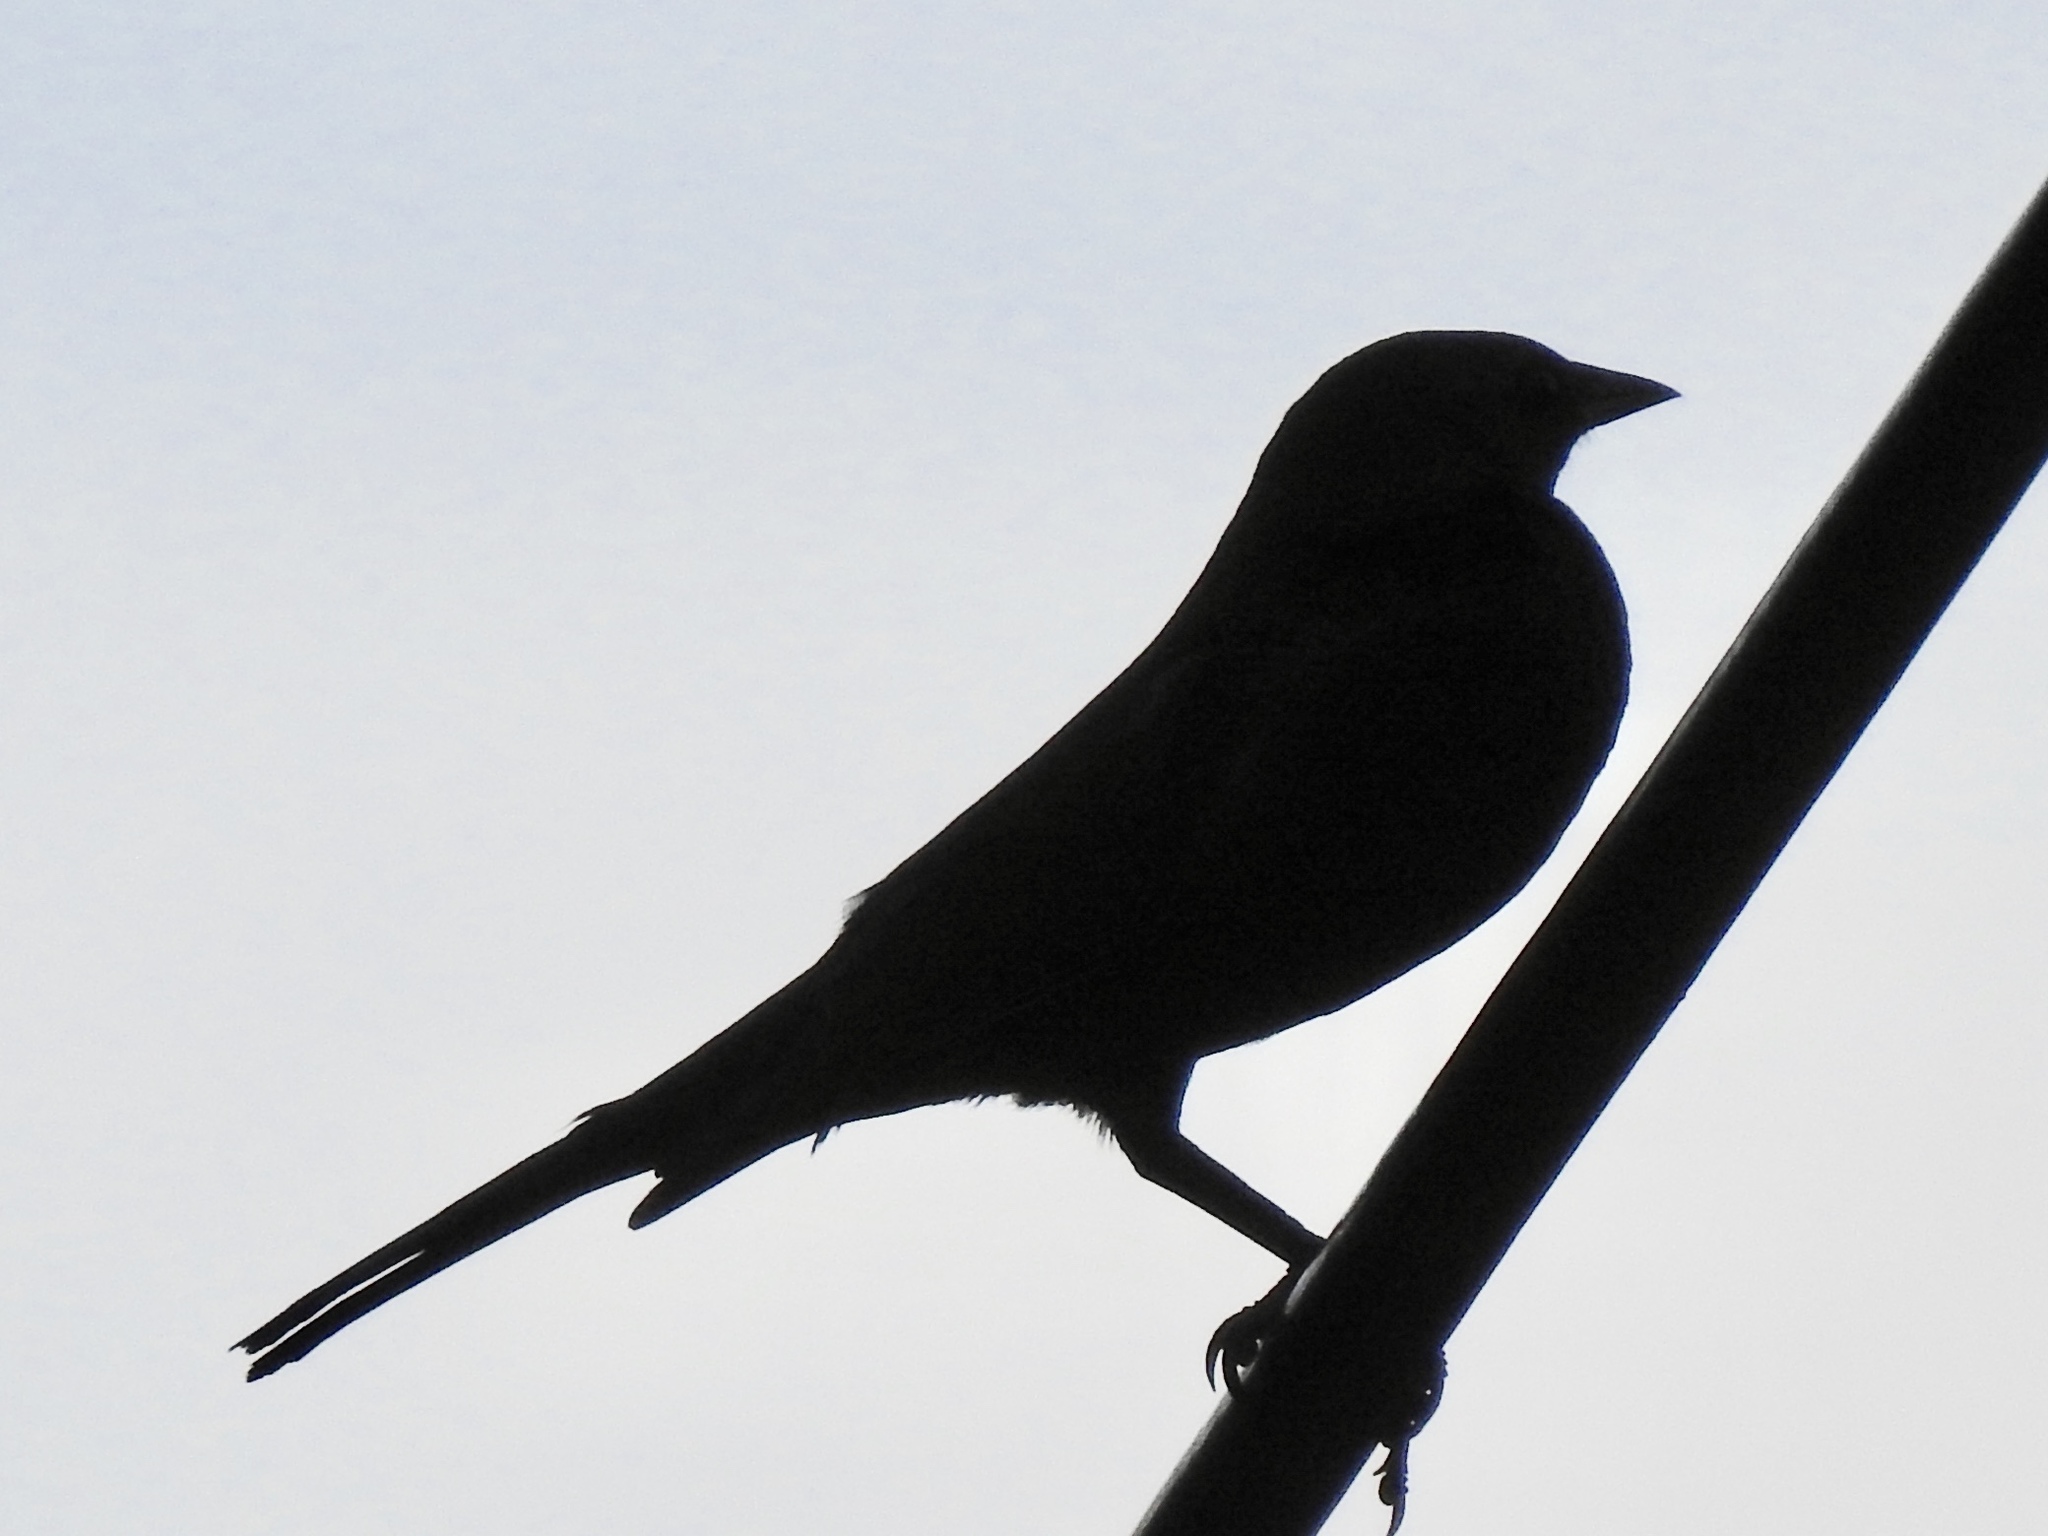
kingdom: Animalia
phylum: Chordata
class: Aves
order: Passeriformes
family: Icteridae
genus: Euphagus
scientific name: Euphagus cyanocephalus
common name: Brewer's blackbird
